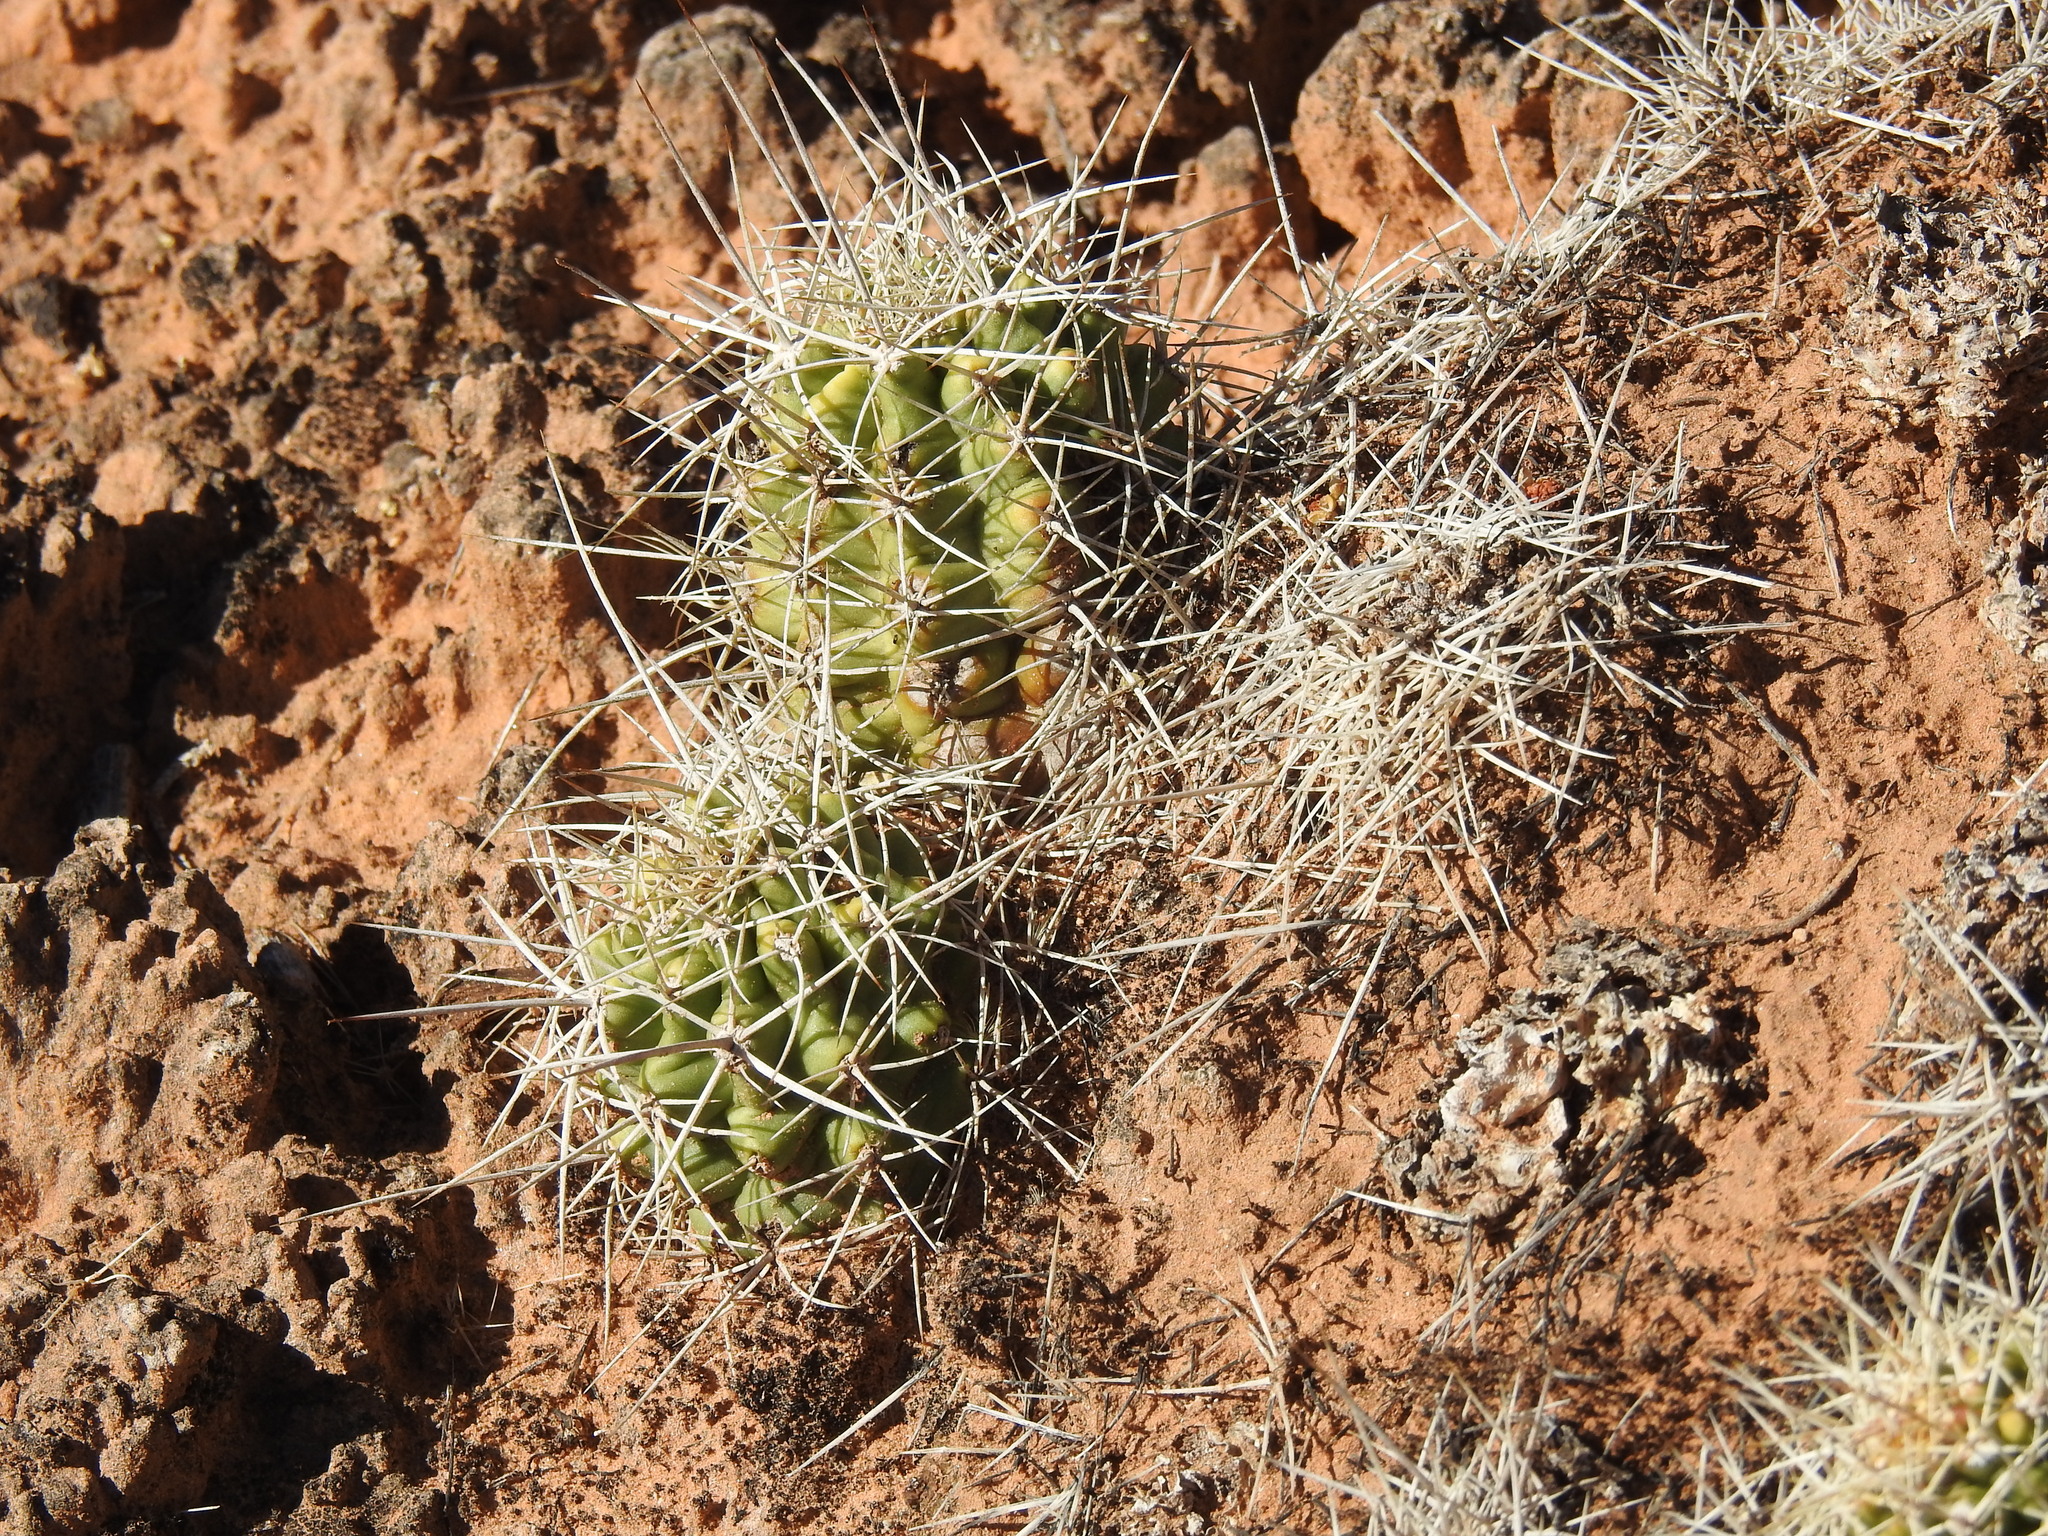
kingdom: Plantae
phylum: Tracheophyta
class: Magnoliopsida
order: Caryophyllales
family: Cactaceae
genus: Echinocereus
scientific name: Echinocereus triglochidiatus
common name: Claretcup hedgehog
